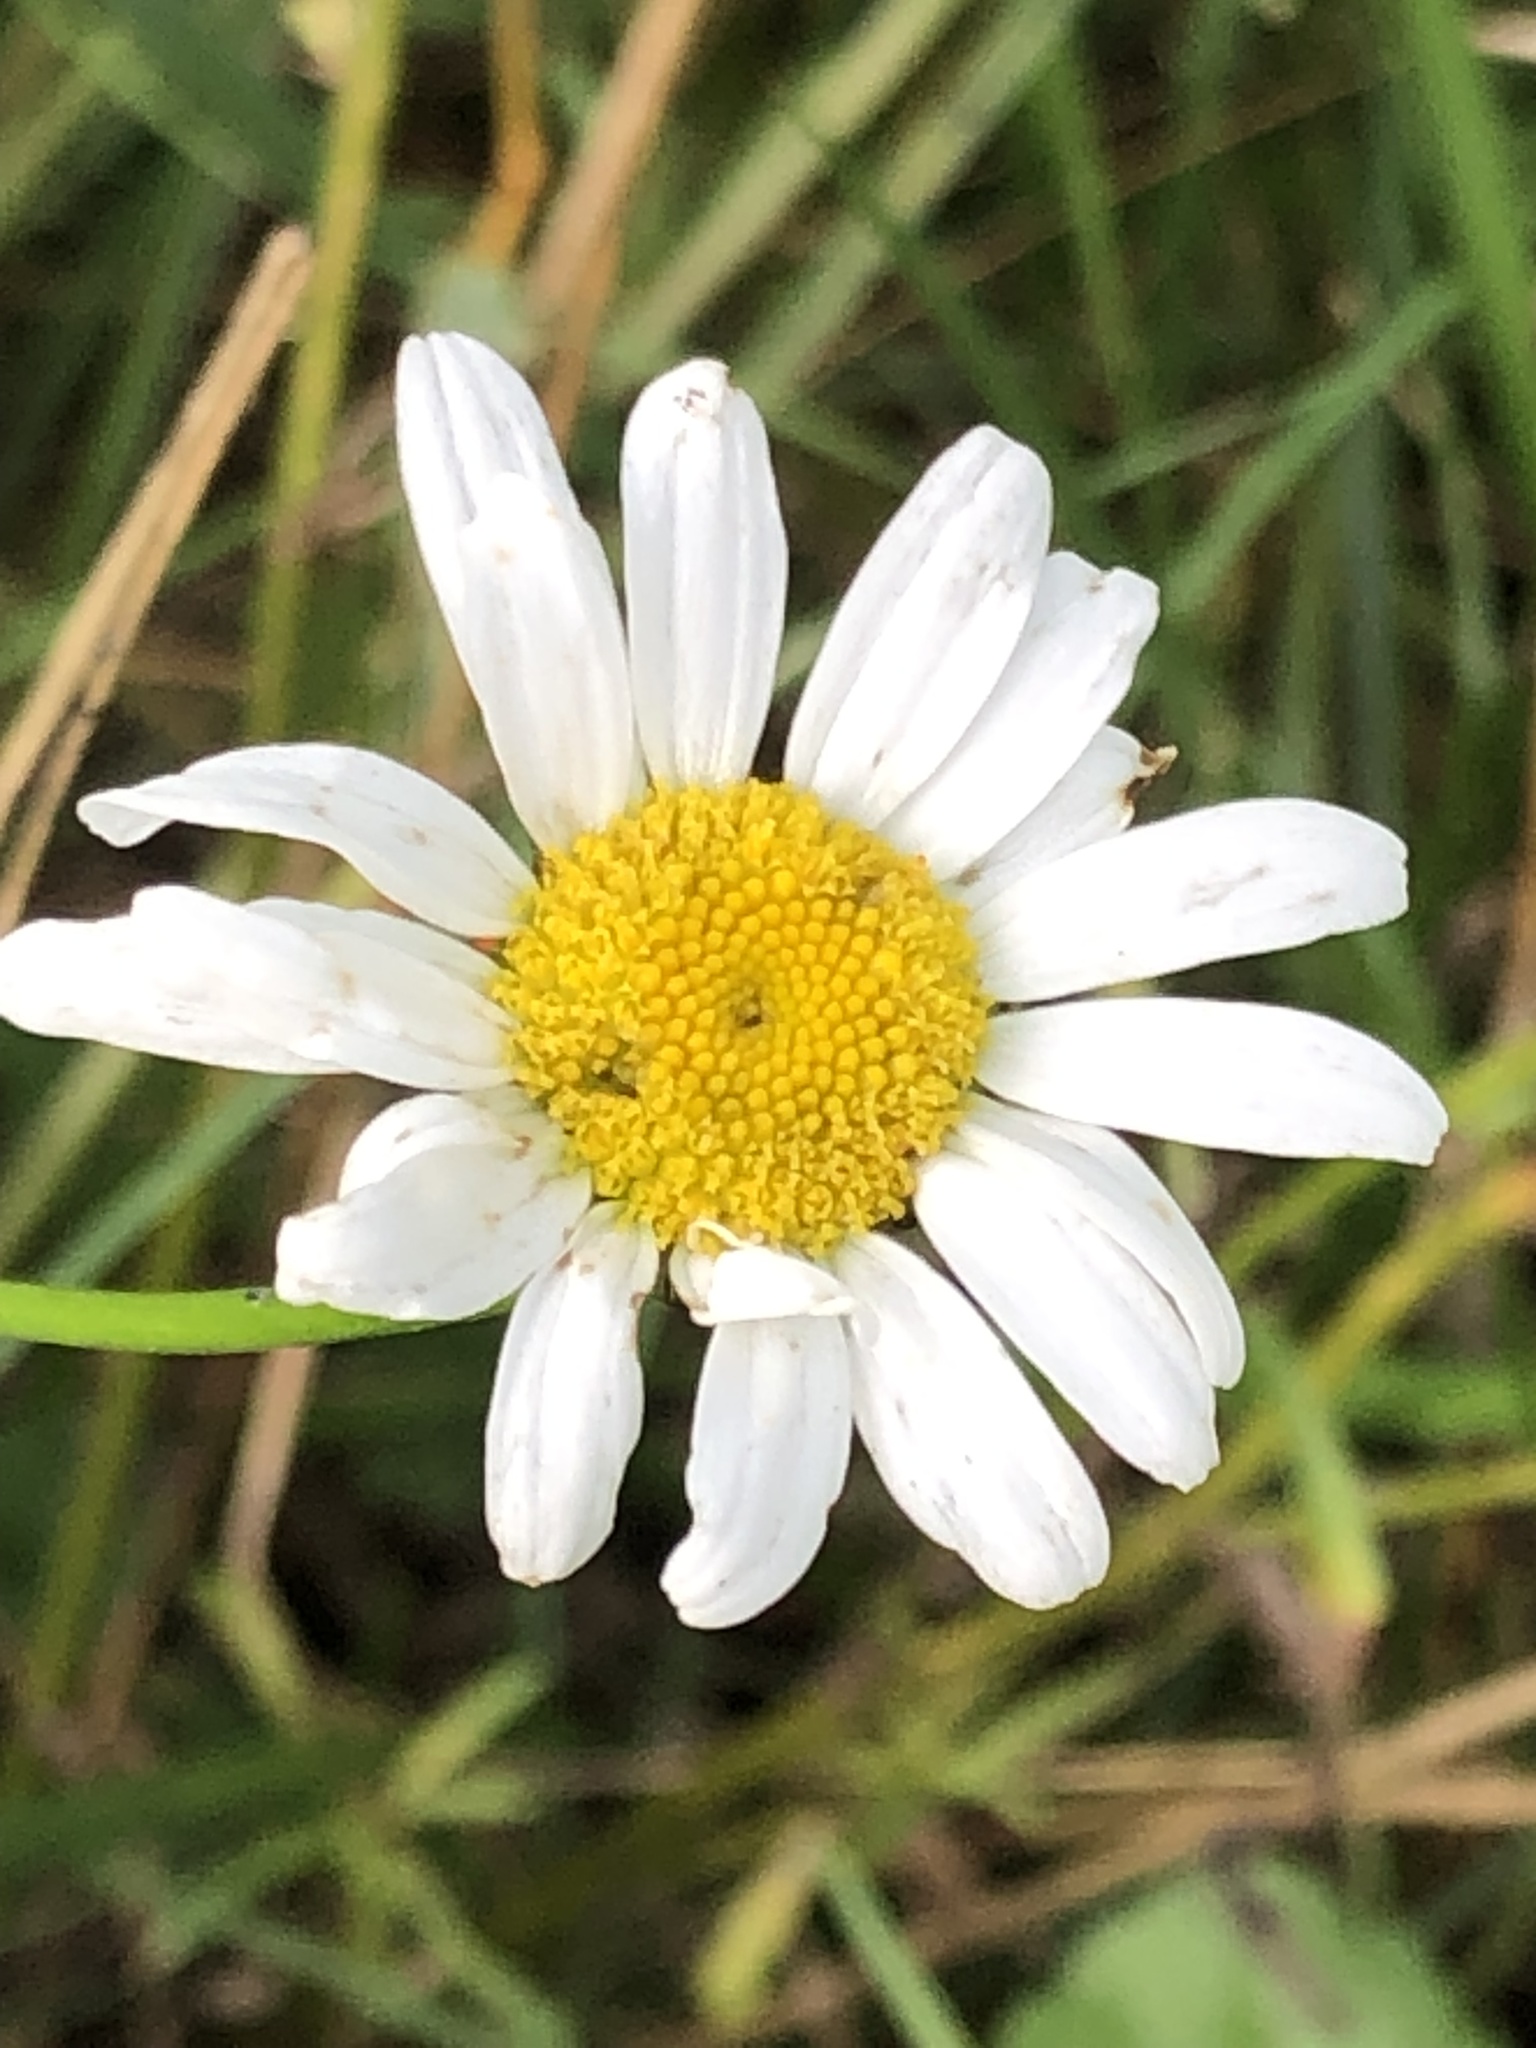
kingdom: Plantae
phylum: Tracheophyta
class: Magnoliopsida
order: Asterales
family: Asteraceae
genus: Leucanthemum
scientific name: Leucanthemum vulgare
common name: Oxeye daisy
